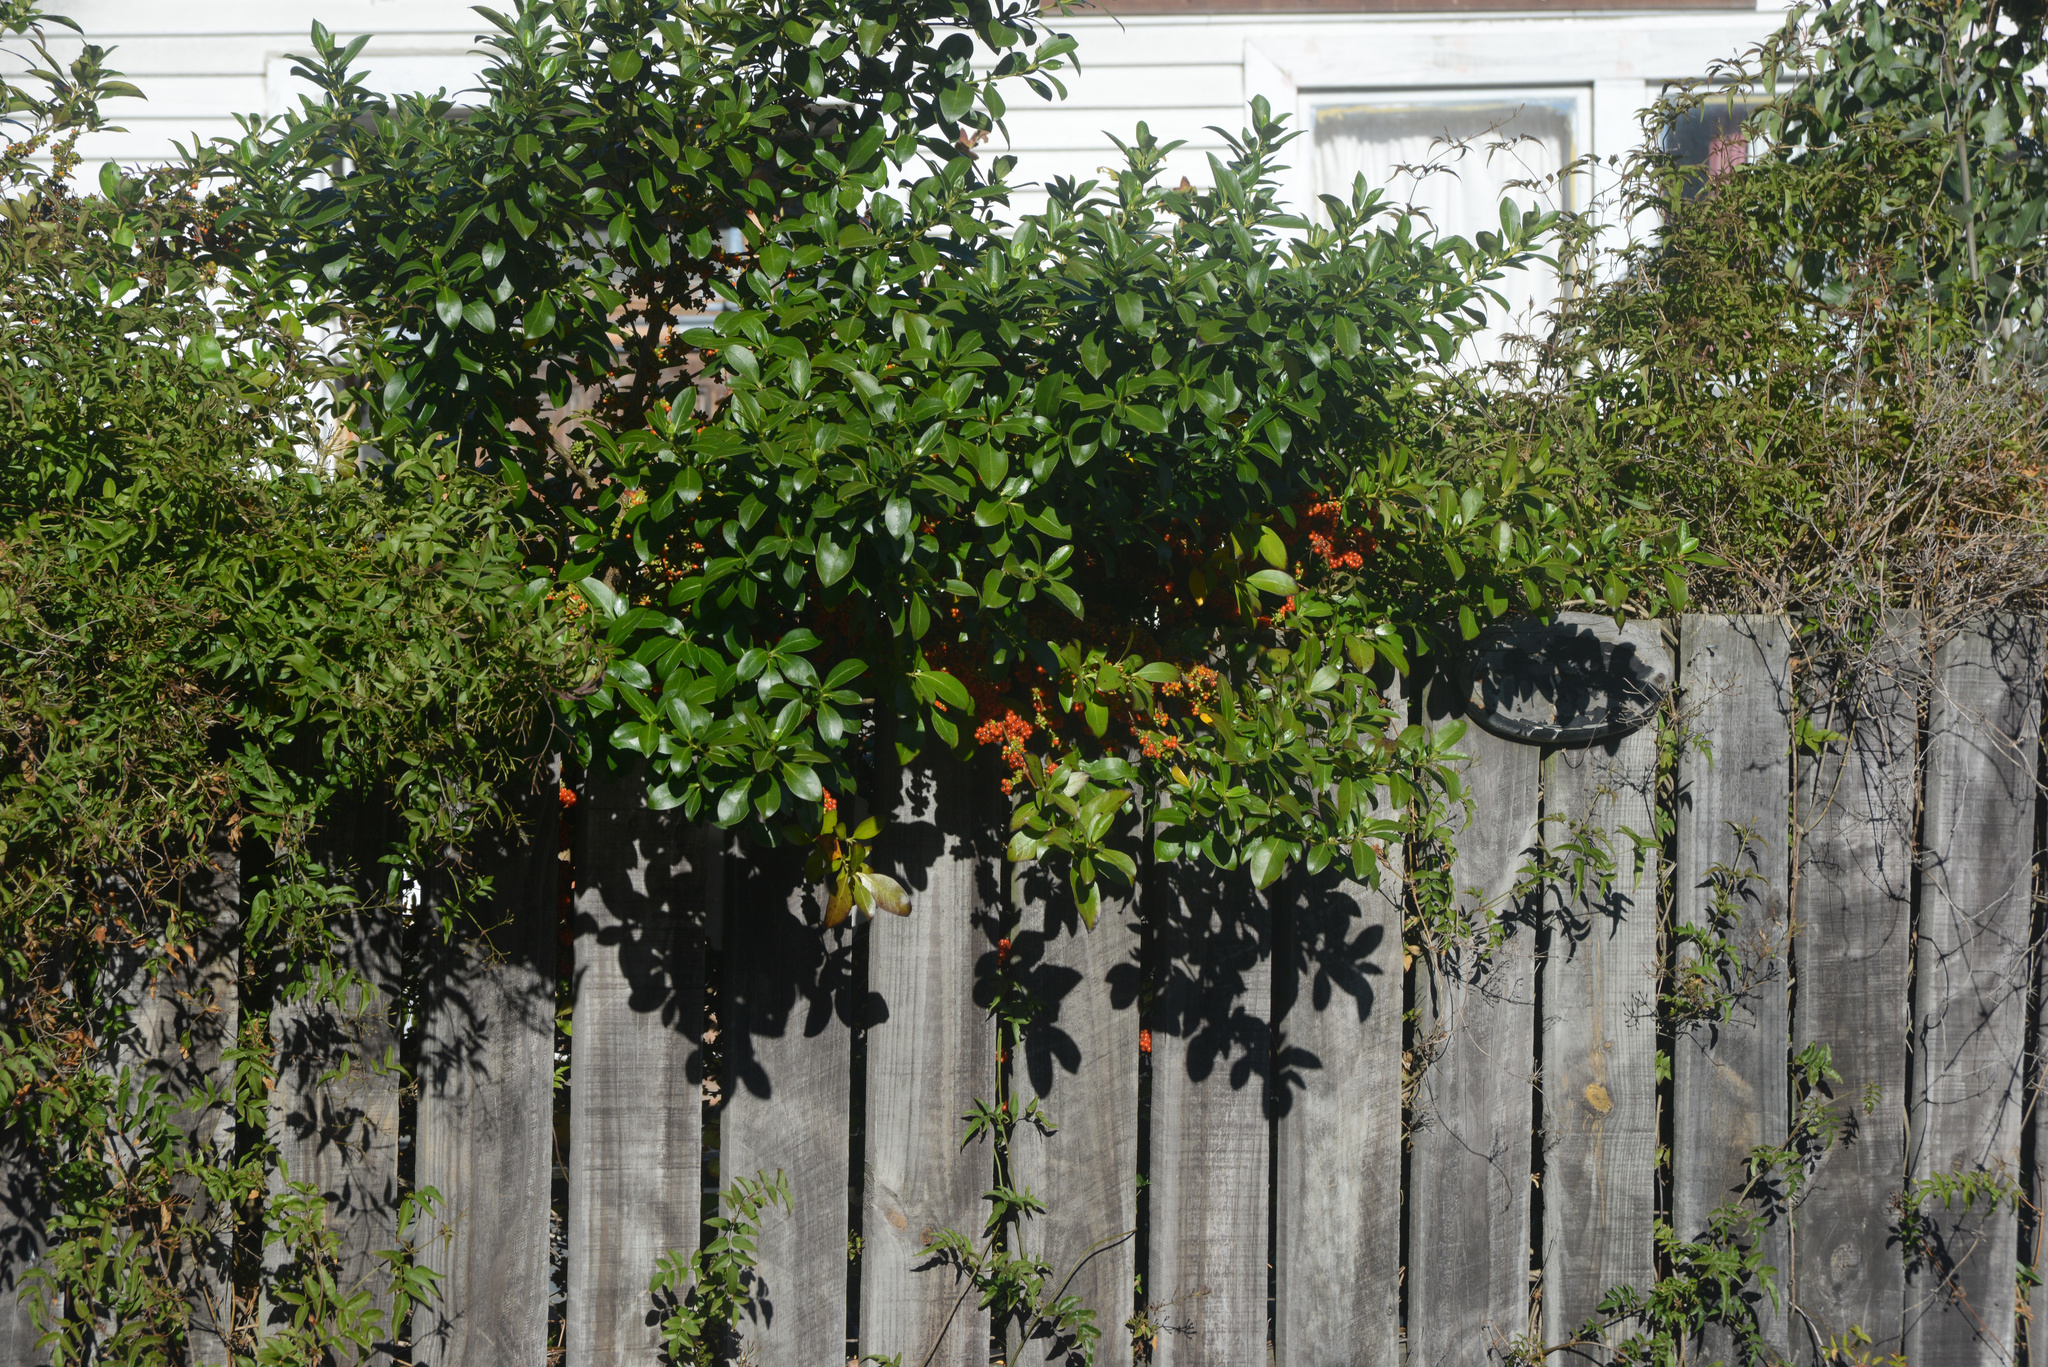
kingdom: Plantae
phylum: Tracheophyta
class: Magnoliopsida
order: Gentianales
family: Rubiaceae
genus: Coprosma
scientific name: Coprosma robusta
